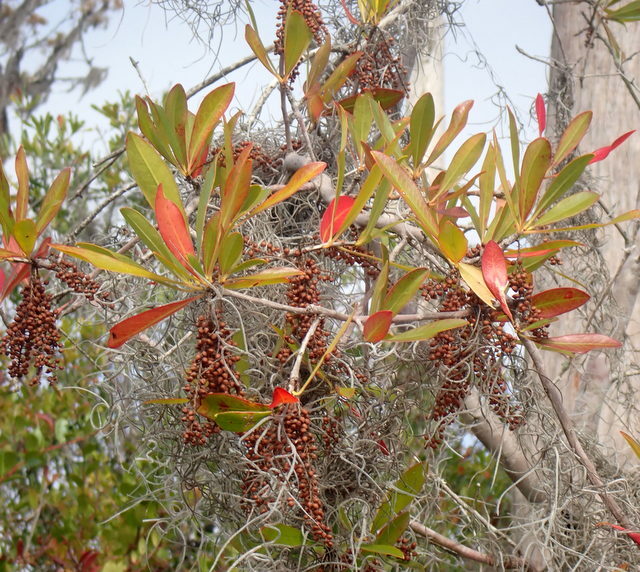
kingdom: Plantae
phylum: Tracheophyta
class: Magnoliopsida
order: Ericales
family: Cyrillaceae
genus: Cyrilla
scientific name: Cyrilla racemiflora
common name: Black titi
